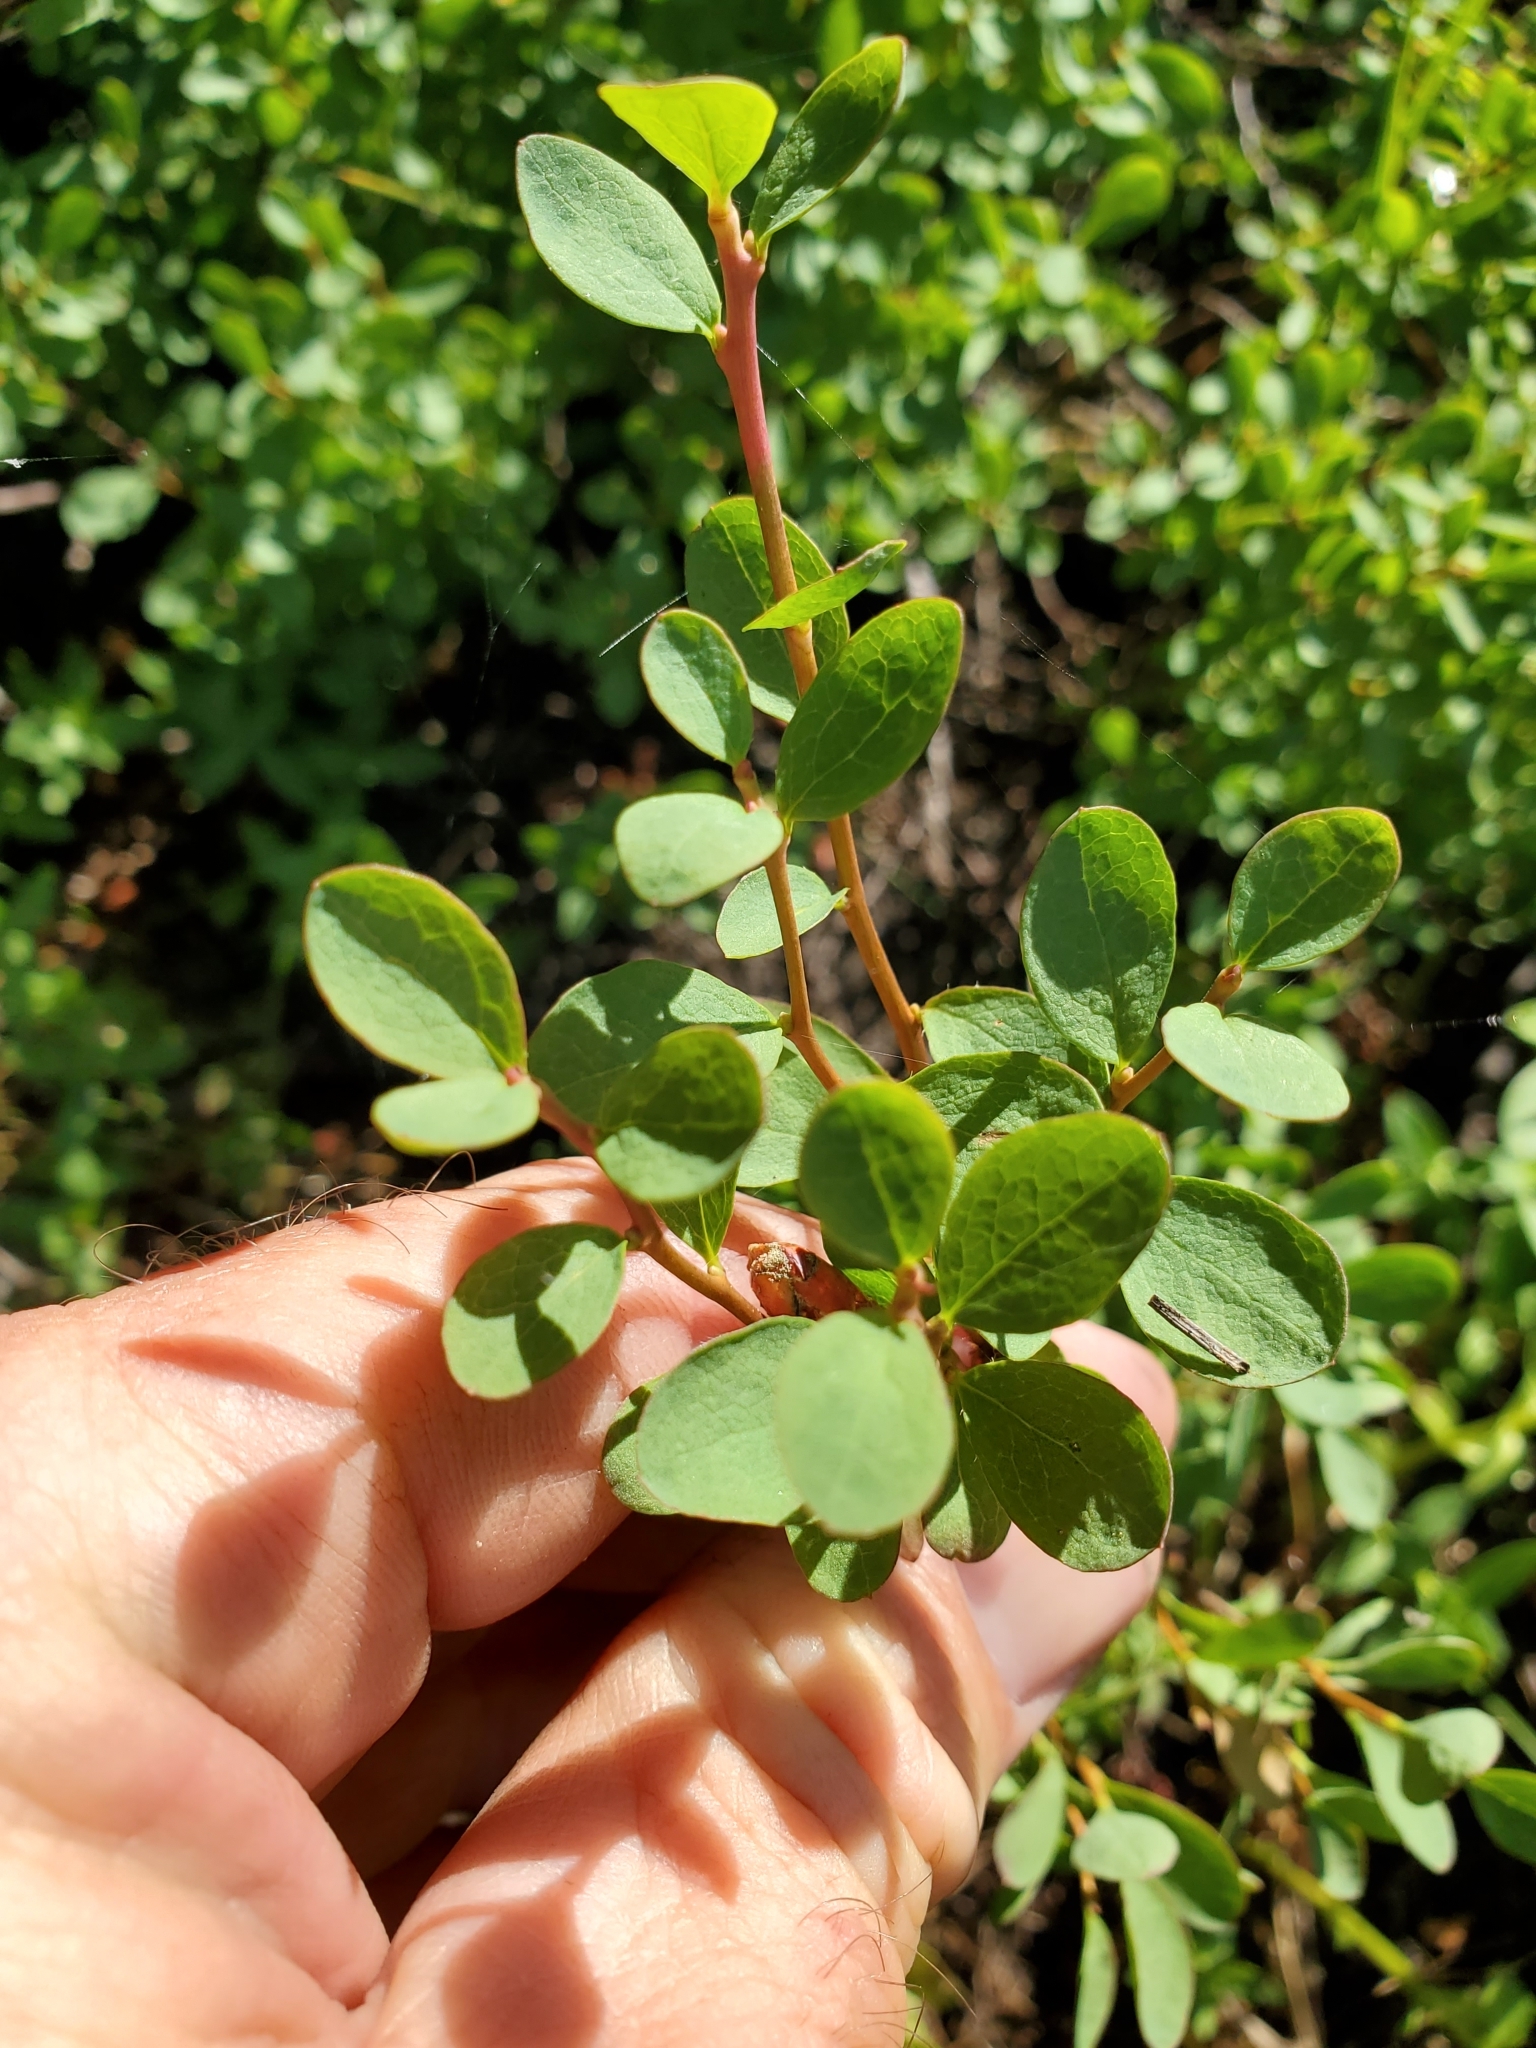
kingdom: Plantae
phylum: Tracheophyta
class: Magnoliopsida
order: Ericales
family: Ericaceae
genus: Vaccinium
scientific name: Vaccinium uliginosum
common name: Bog bilberry
